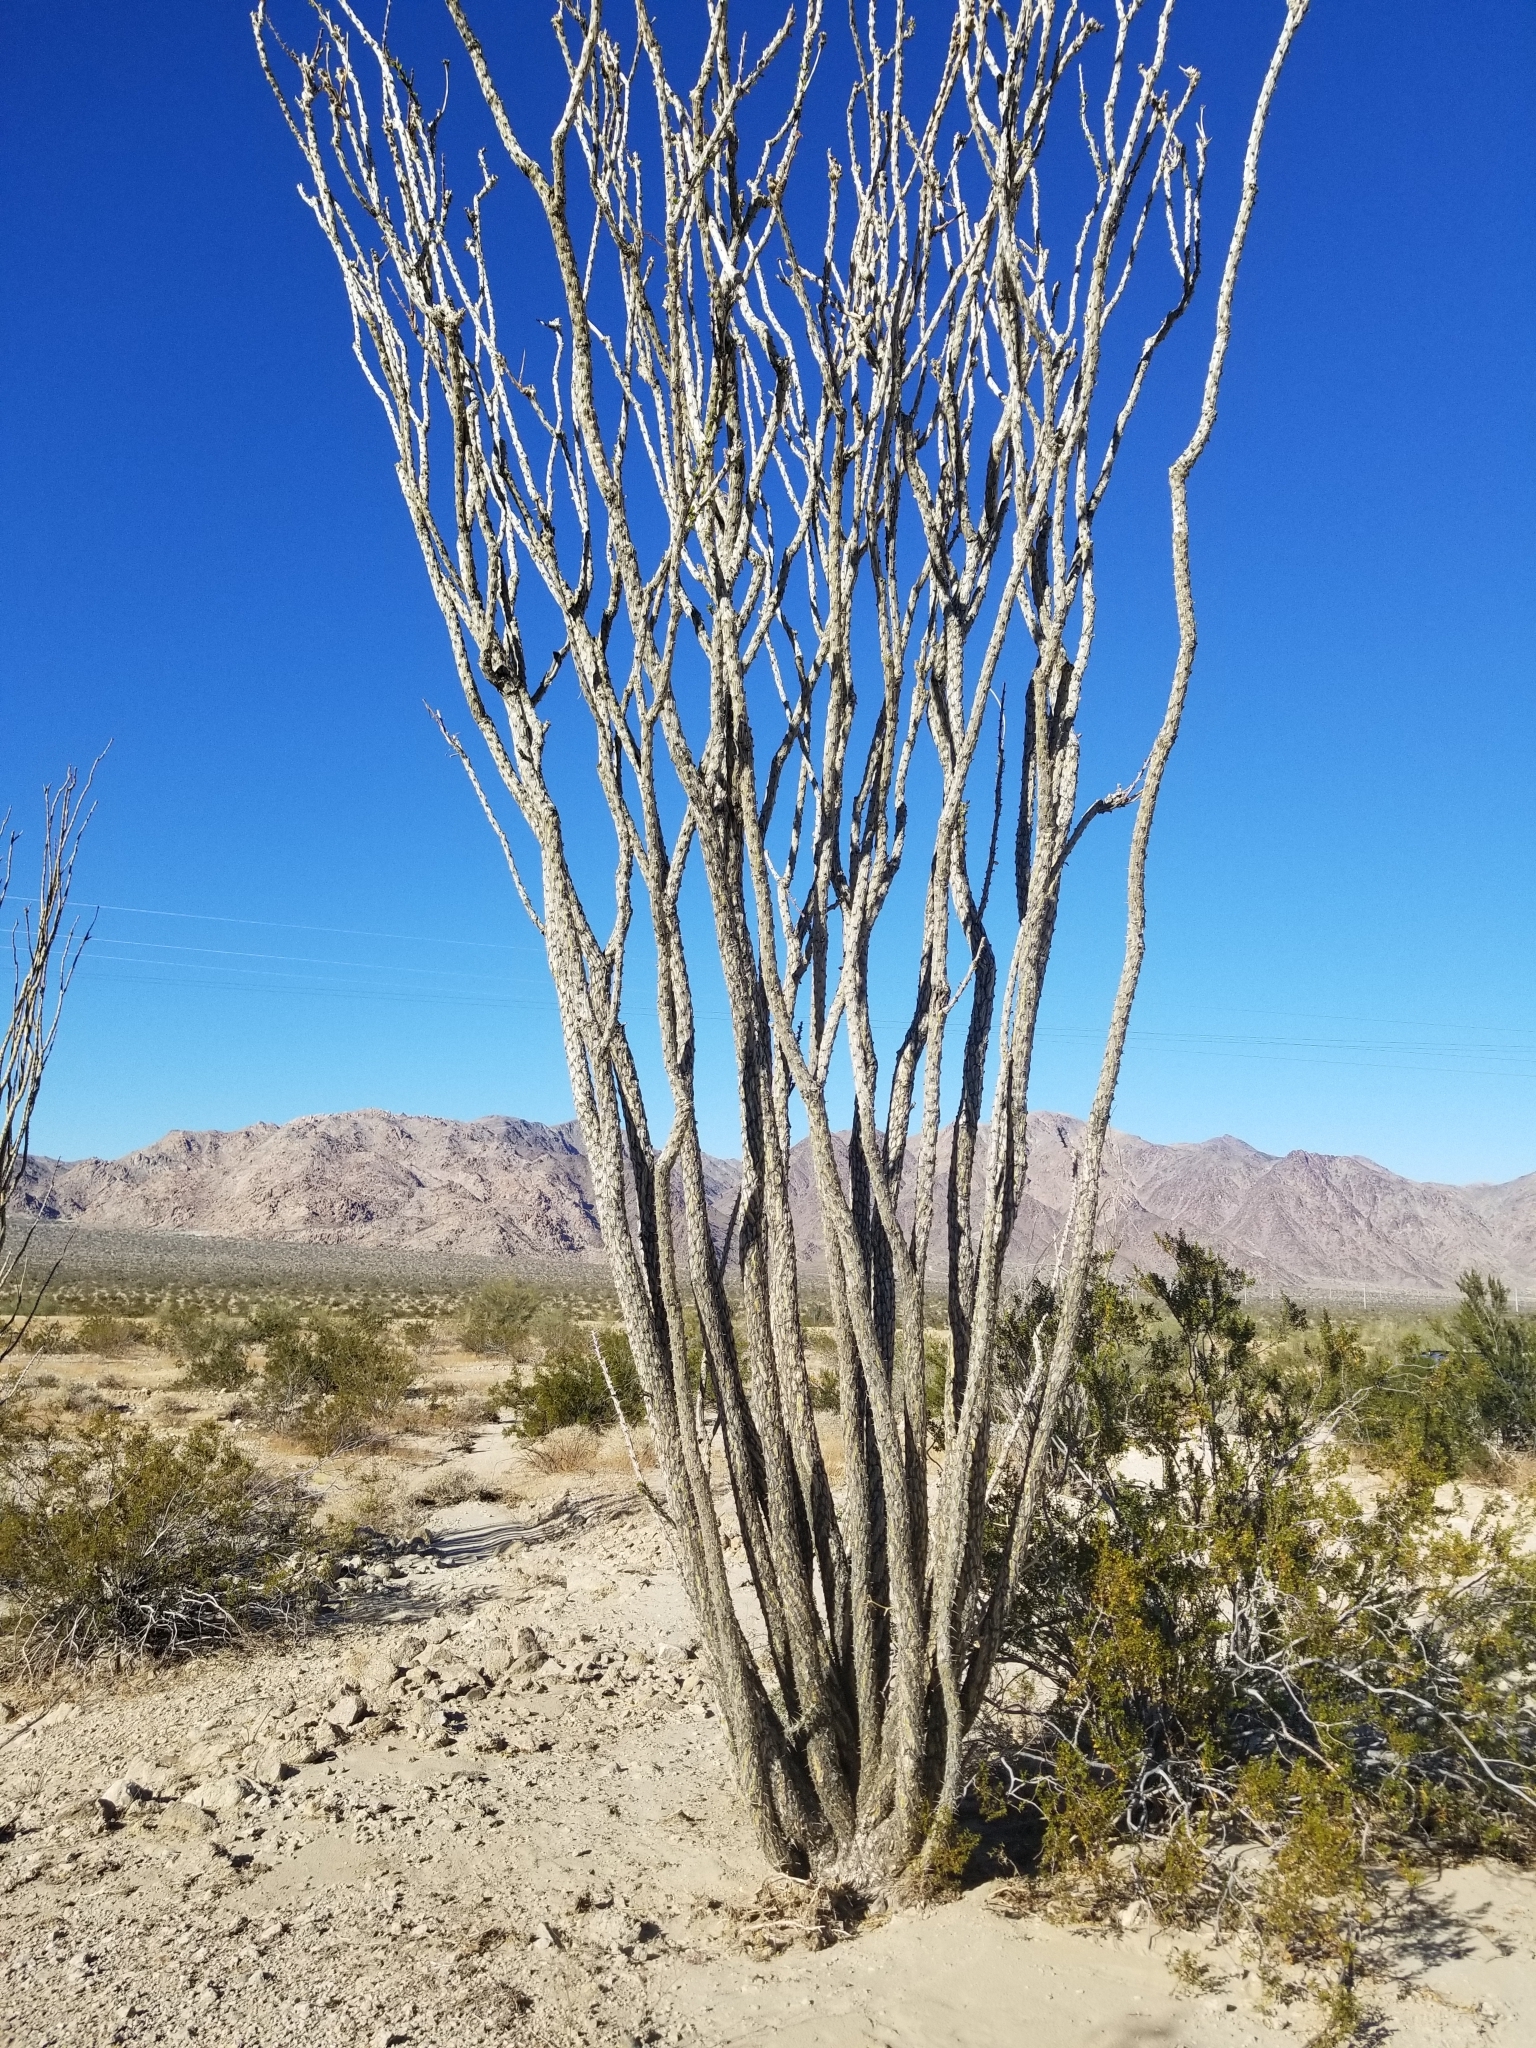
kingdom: Plantae
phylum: Tracheophyta
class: Magnoliopsida
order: Ericales
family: Fouquieriaceae
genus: Fouquieria
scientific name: Fouquieria splendens
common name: Vine-cactus
